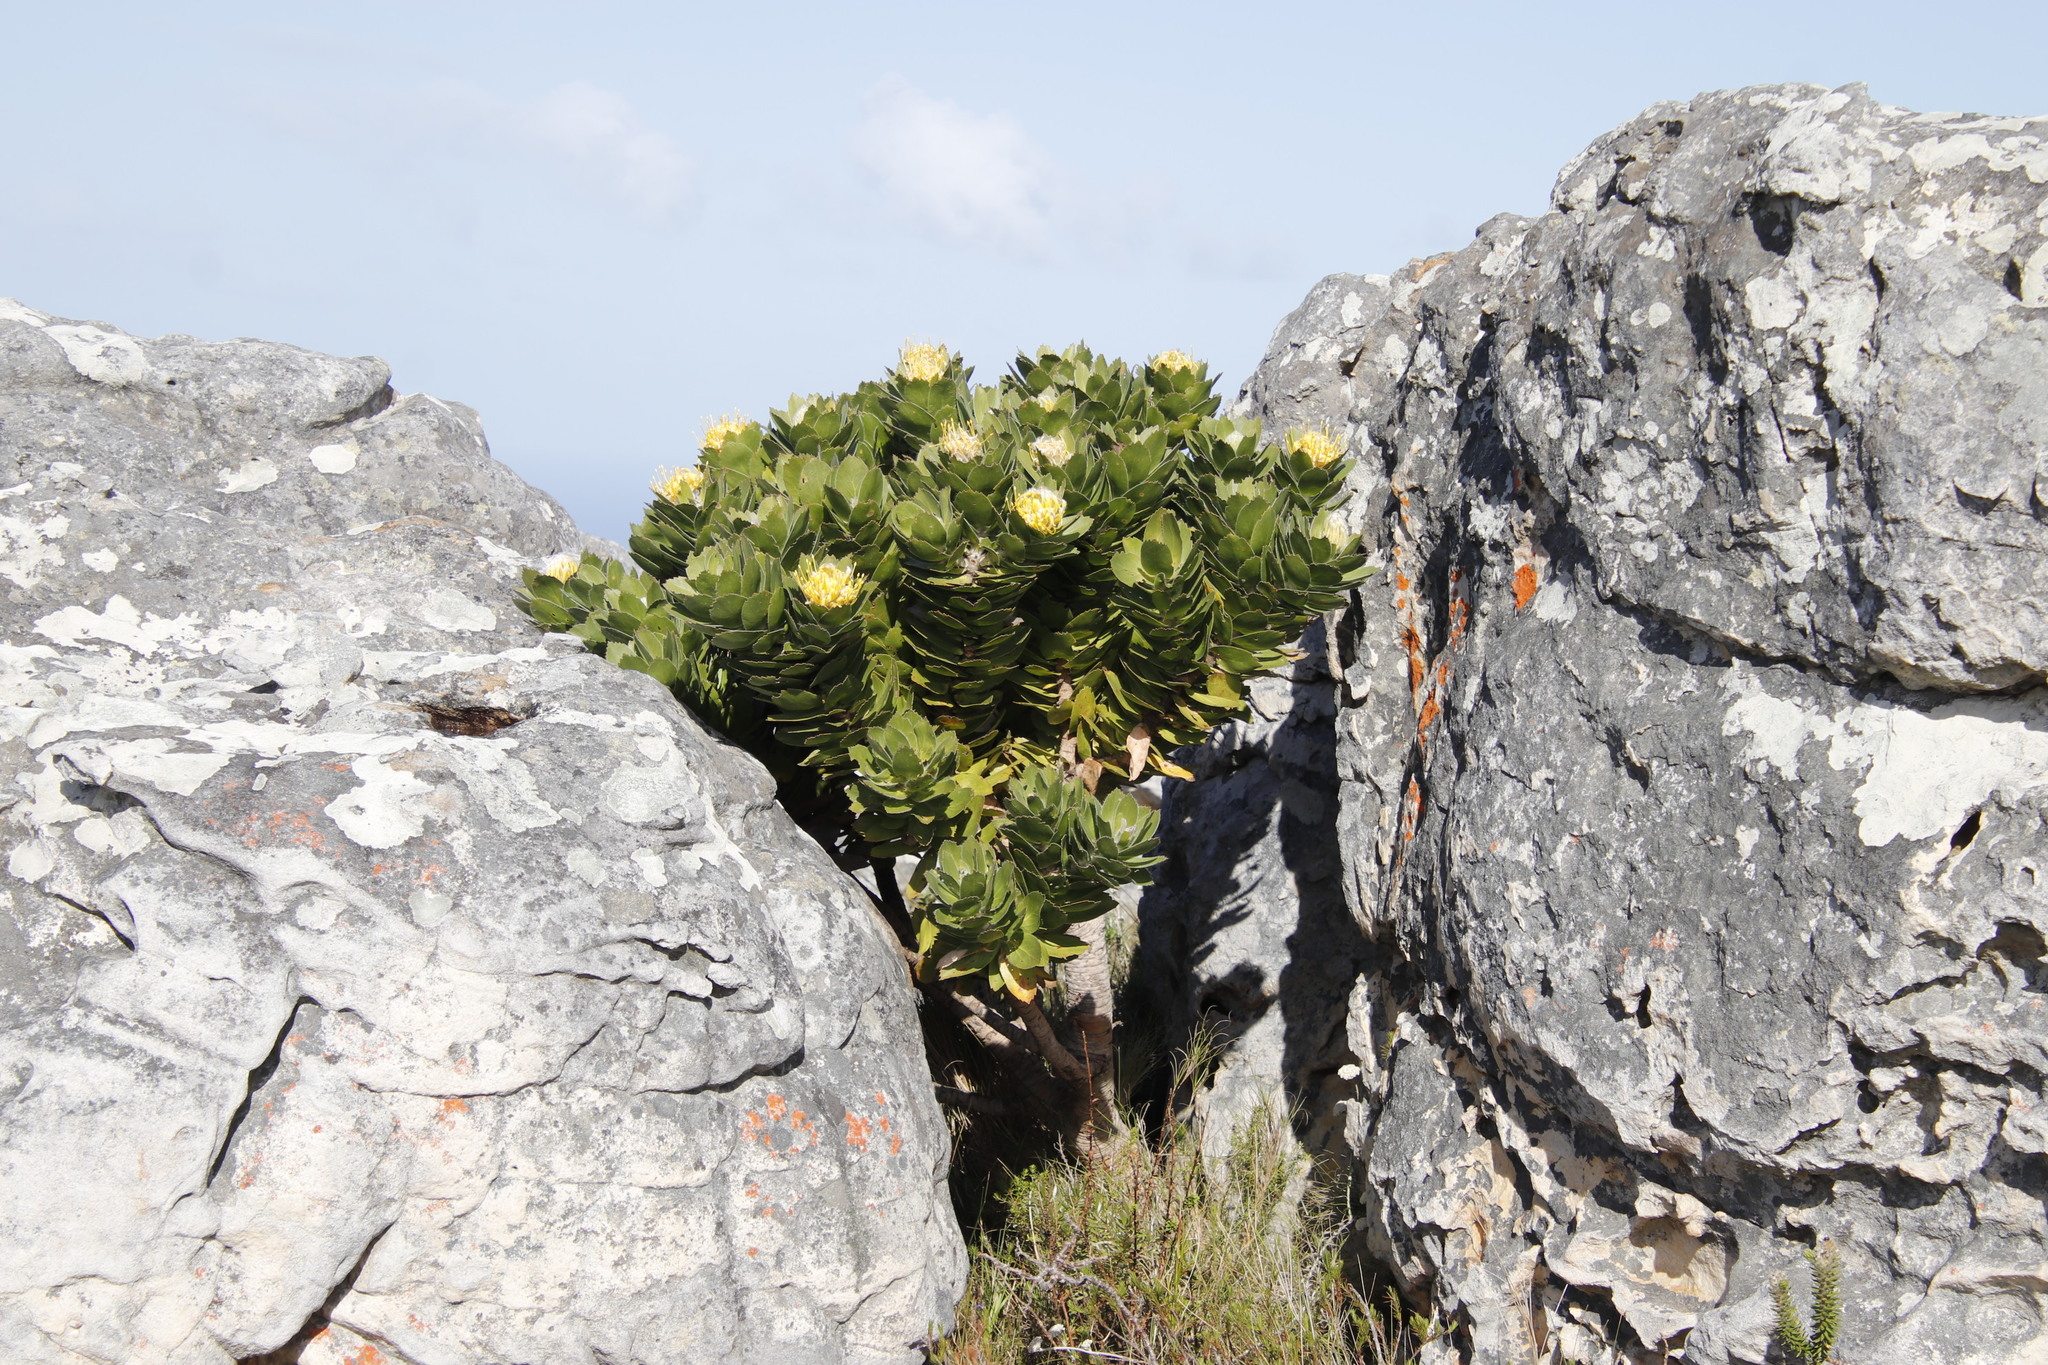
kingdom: Plantae
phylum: Tracheophyta
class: Magnoliopsida
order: Proteales
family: Proteaceae
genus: Leucospermum
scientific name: Leucospermum conocarpodendron
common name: Tree pincushion
